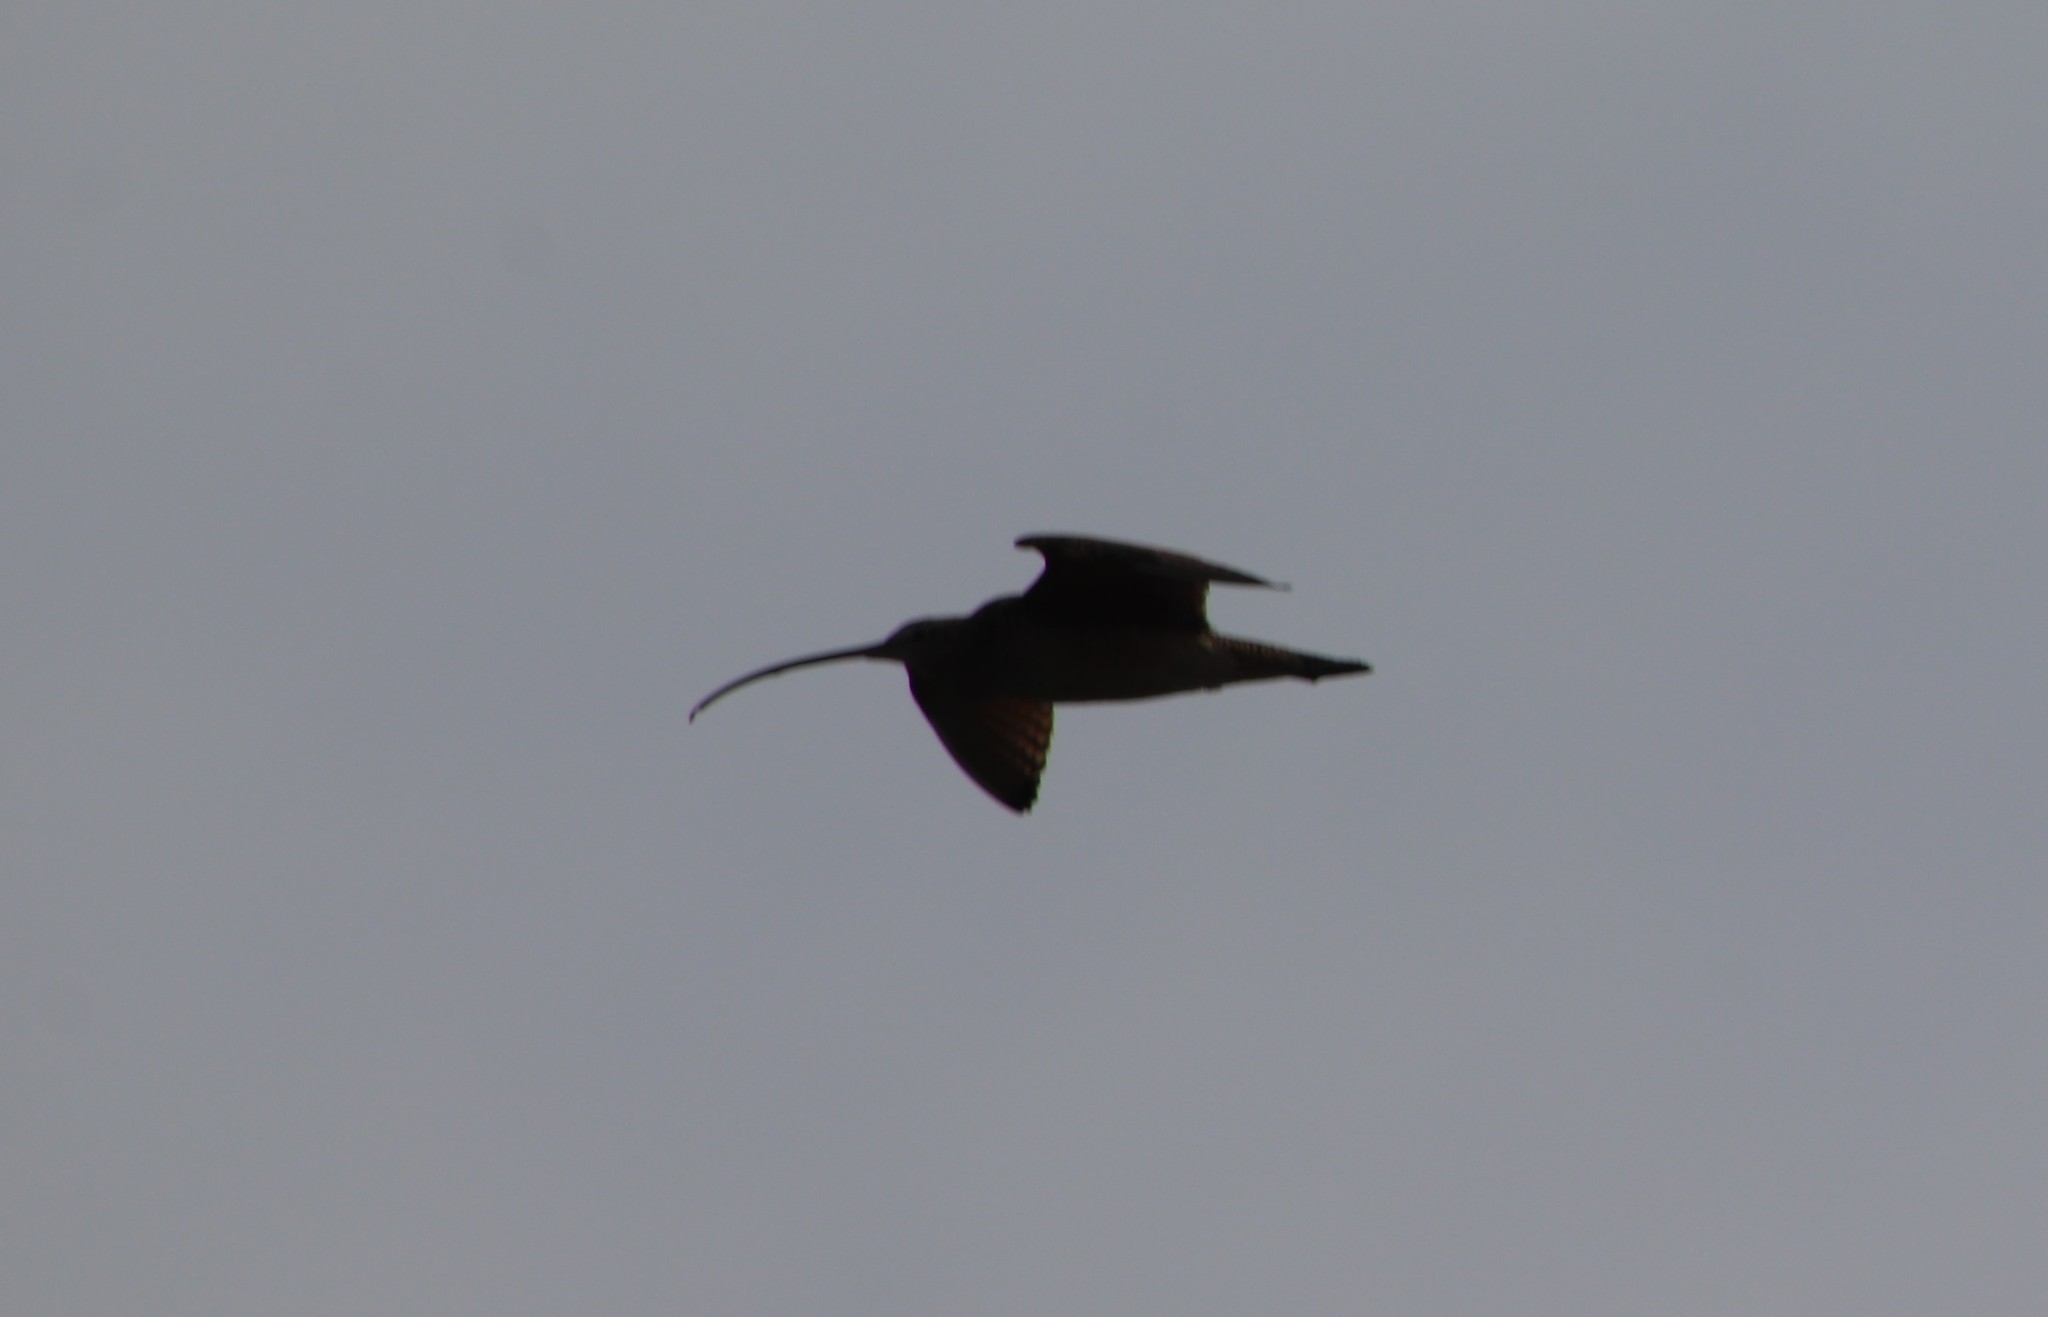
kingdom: Animalia
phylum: Chordata
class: Aves
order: Charadriiformes
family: Scolopacidae
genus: Numenius
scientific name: Numenius americanus
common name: Long-billed curlew
